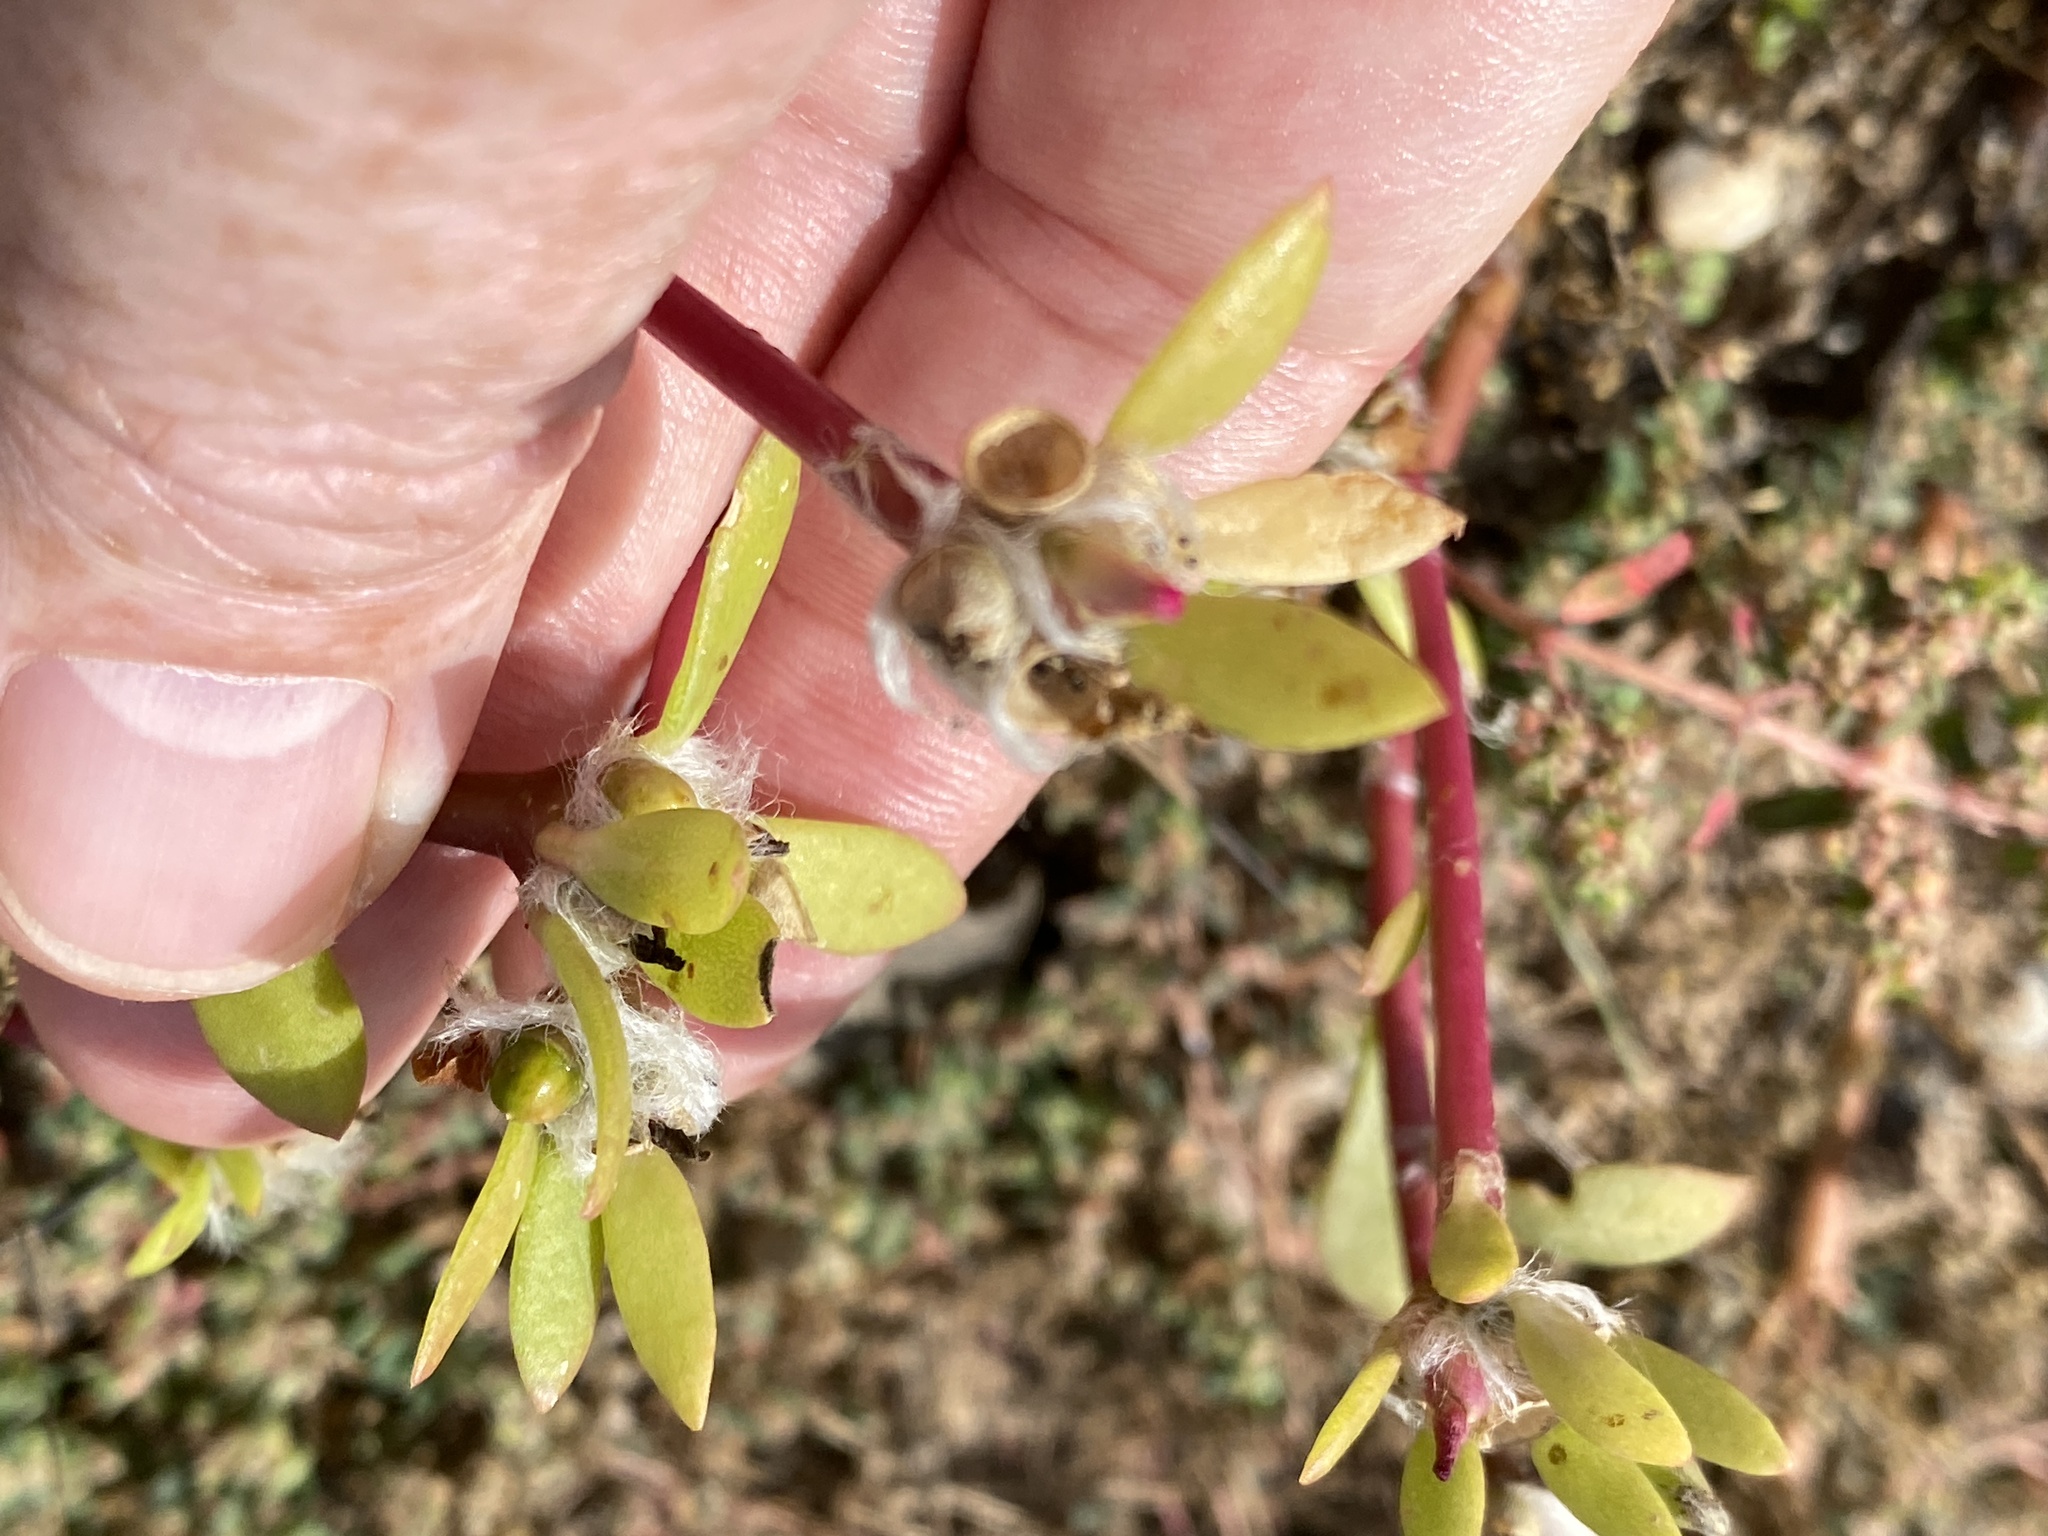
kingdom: Plantae
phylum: Tracheophyta
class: Magnoliopsida
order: Caryophyllales
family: Portulacaceae
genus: Portulaca
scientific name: Portulaca amilis
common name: Paraguayan purslane
